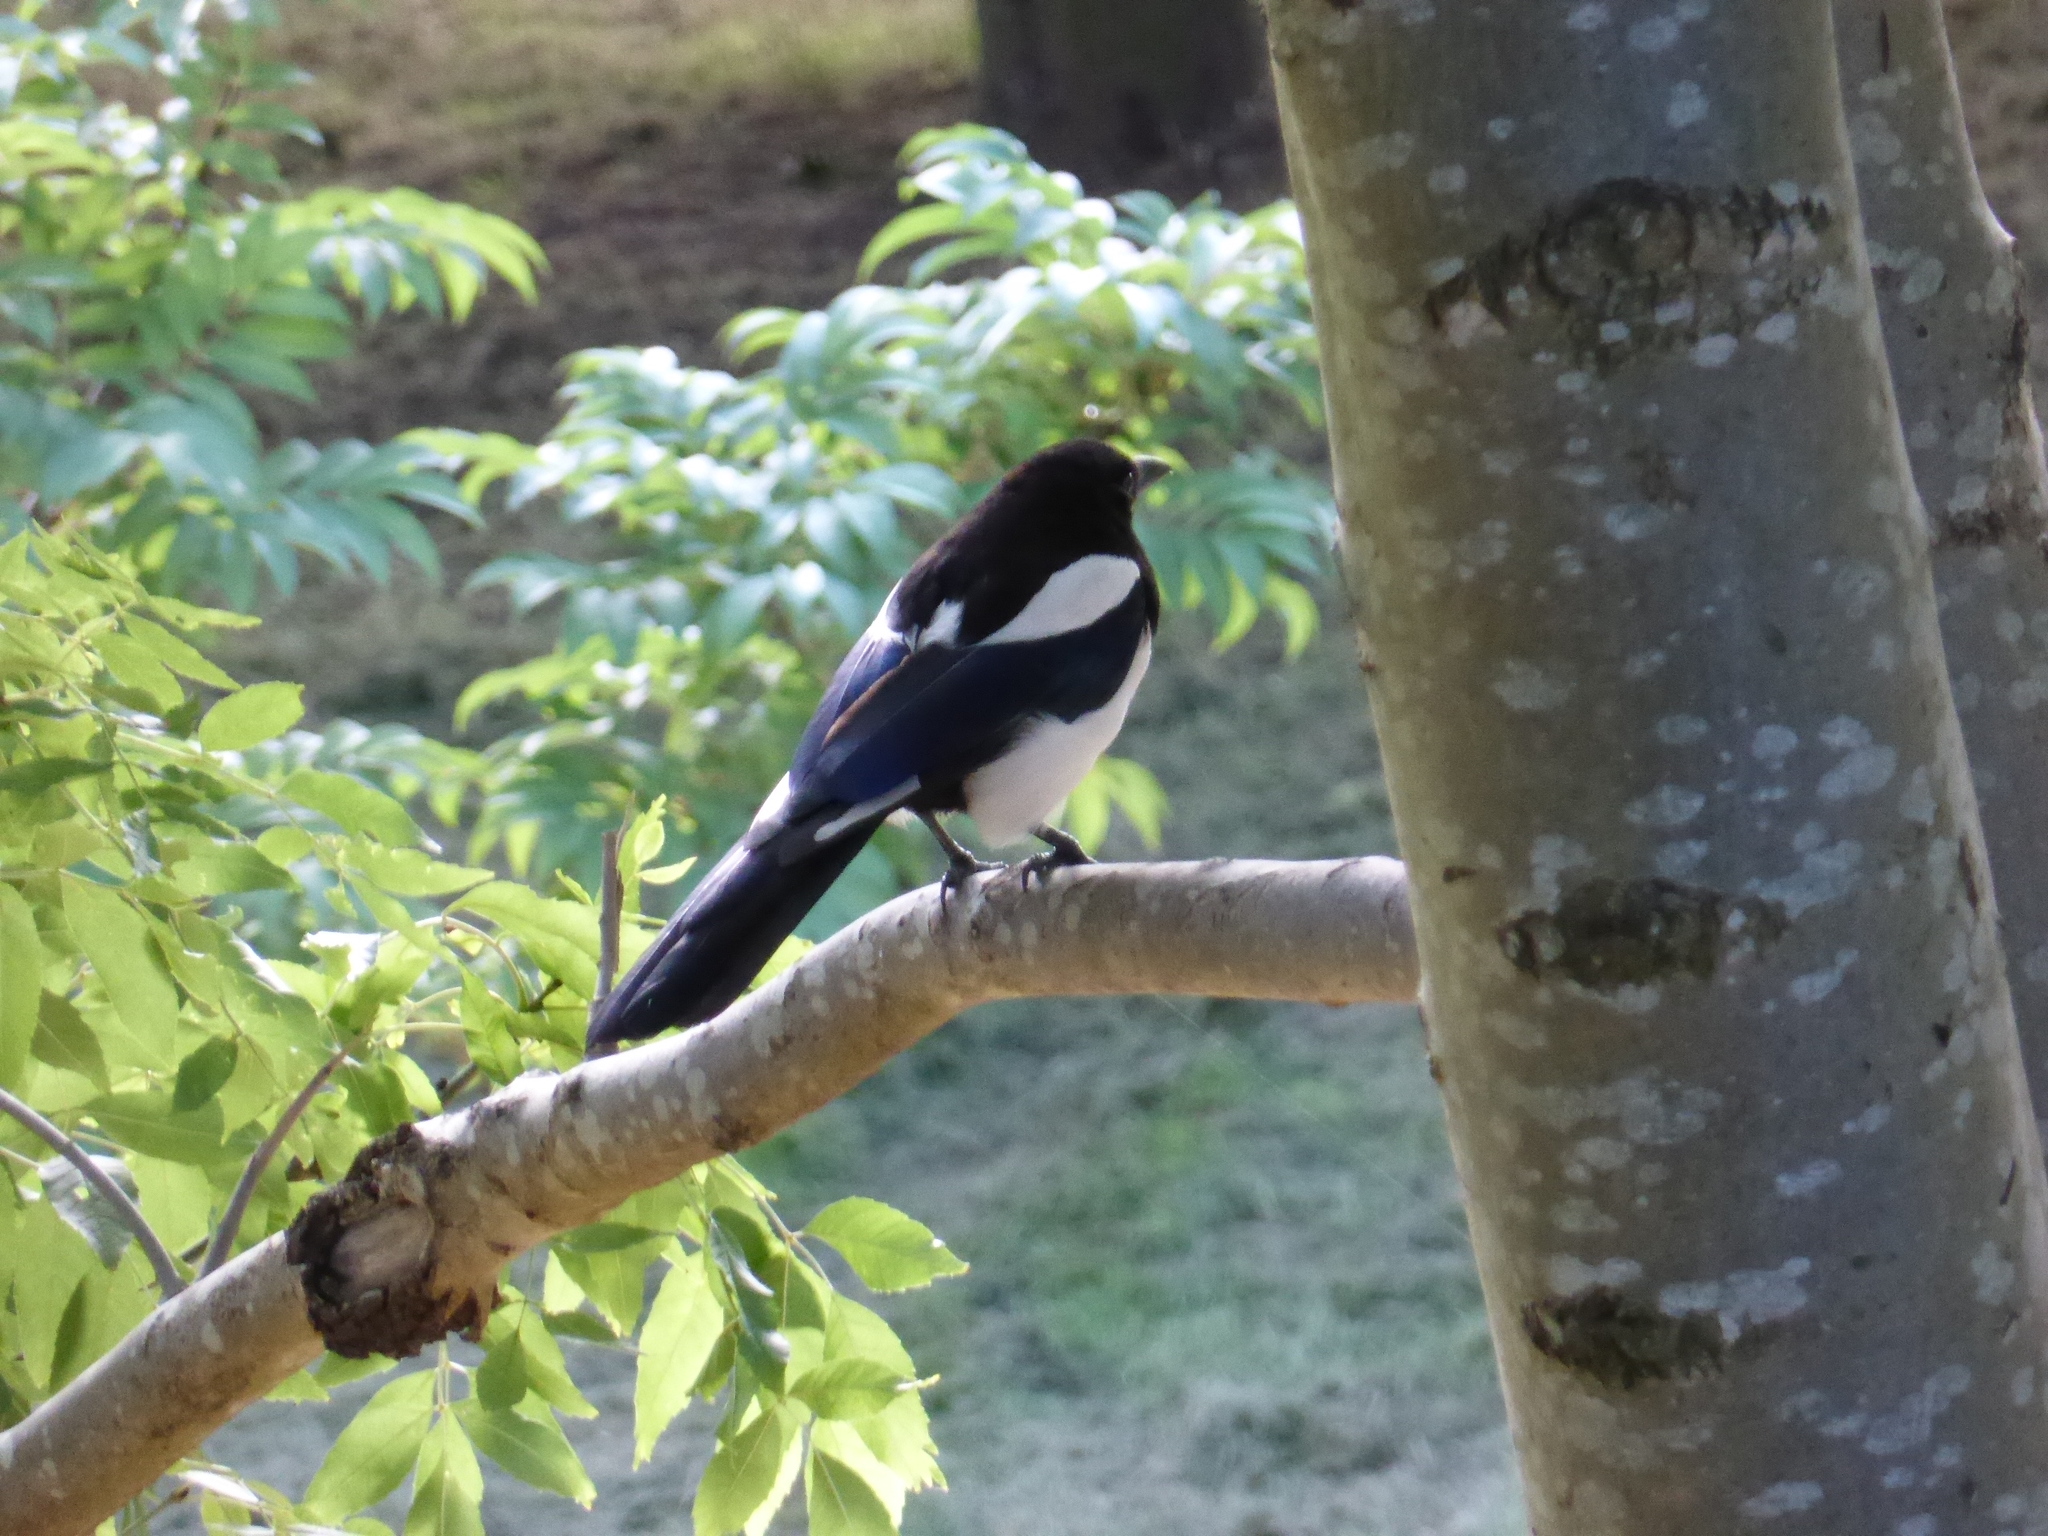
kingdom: Animalia
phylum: Chordata
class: Aves
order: Passeriformes
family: Corvidae
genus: Pica
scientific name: Pica pica
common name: Eurasian magpie
